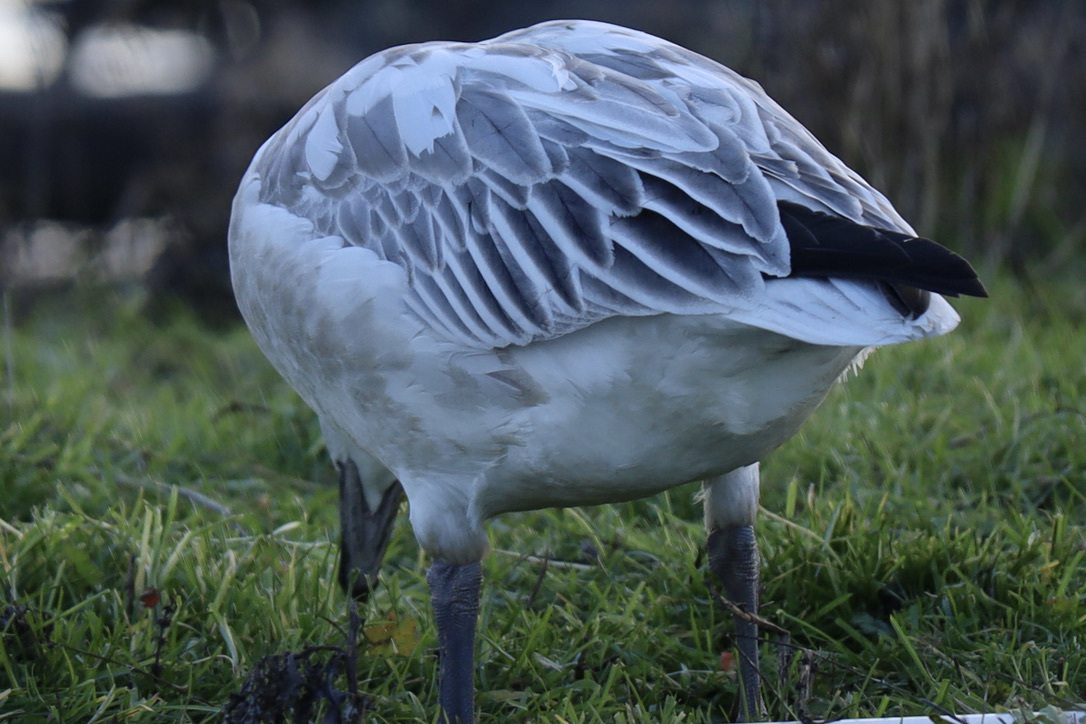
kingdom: Animalia
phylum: Chordata
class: Aves
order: Anseriformes
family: Anatidae
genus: Anser
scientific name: Anser caerulescens
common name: Snow goose
